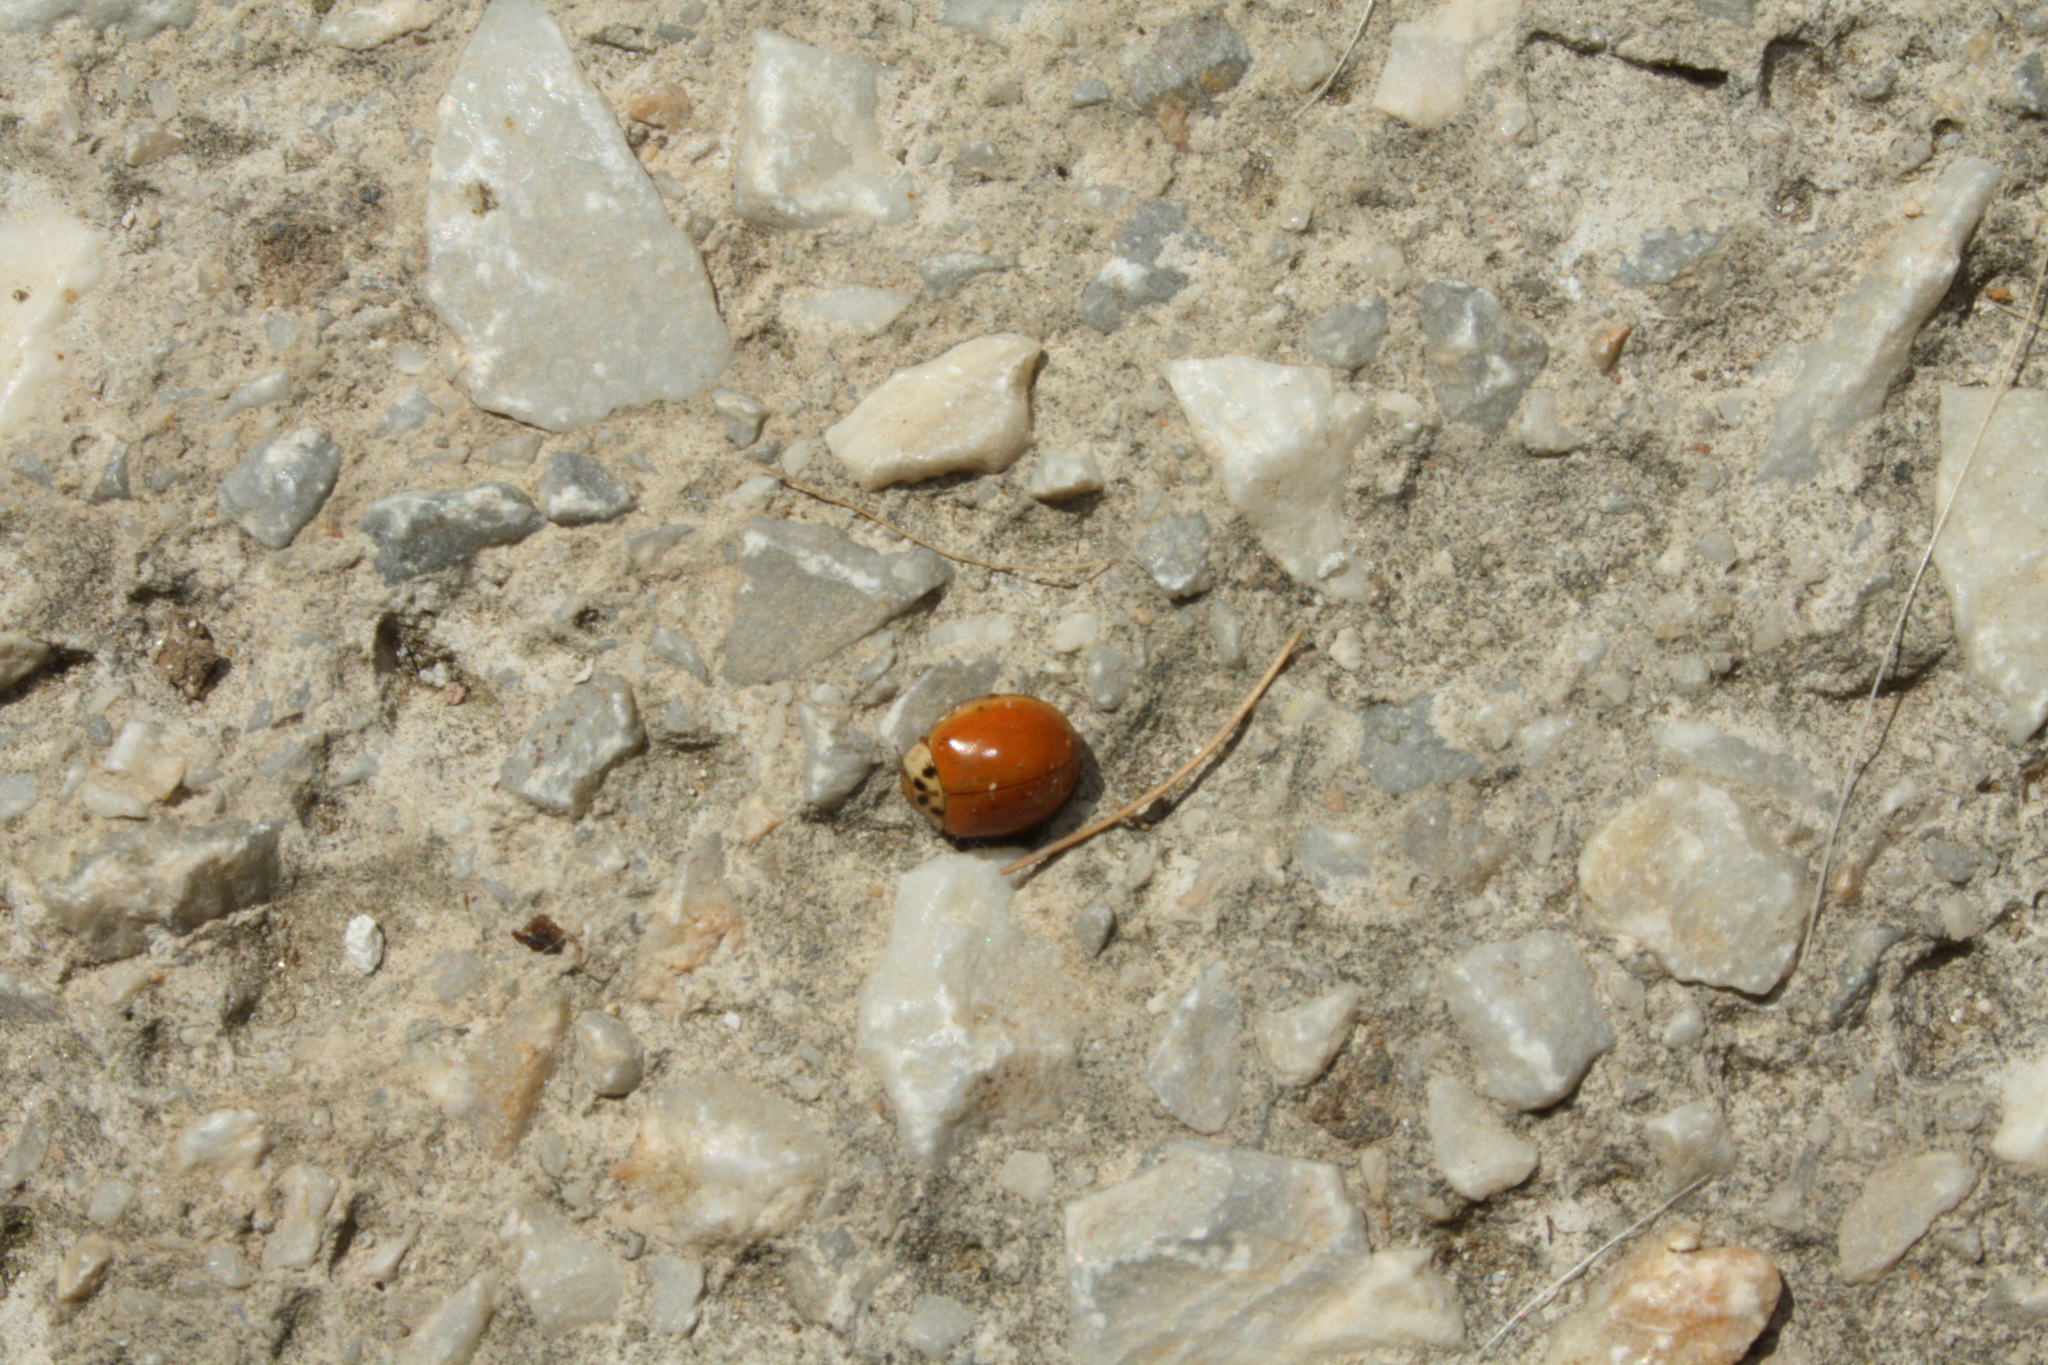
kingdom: Animalia
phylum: Arthropoda
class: Insecta
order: Coleoptera
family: Coccinellidae
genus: Harmonia
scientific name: Harmonia axyridis
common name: Harlequin ladybird
